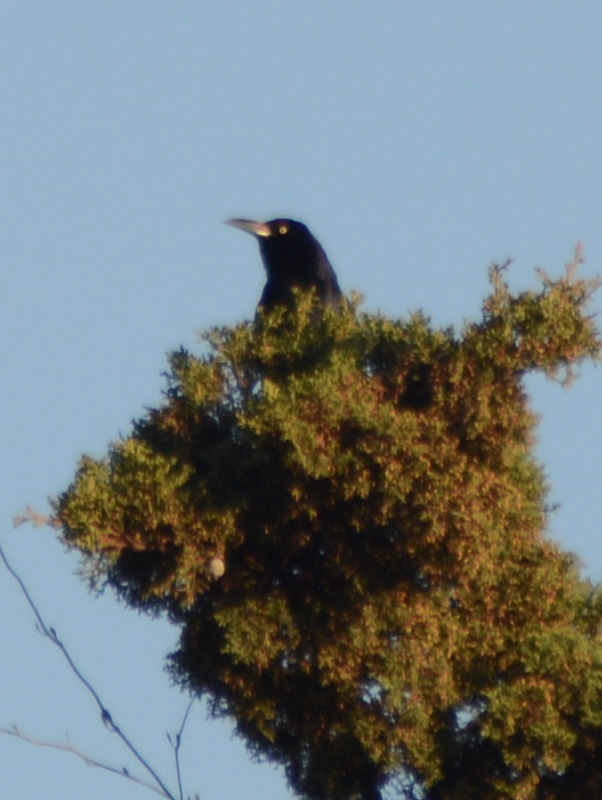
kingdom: Animalia
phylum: Chordata
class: Aves
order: Passeriformes
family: Icteridae
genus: Quiscalus
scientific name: Quiscalus mexicanus
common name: Great-tailed grackle
